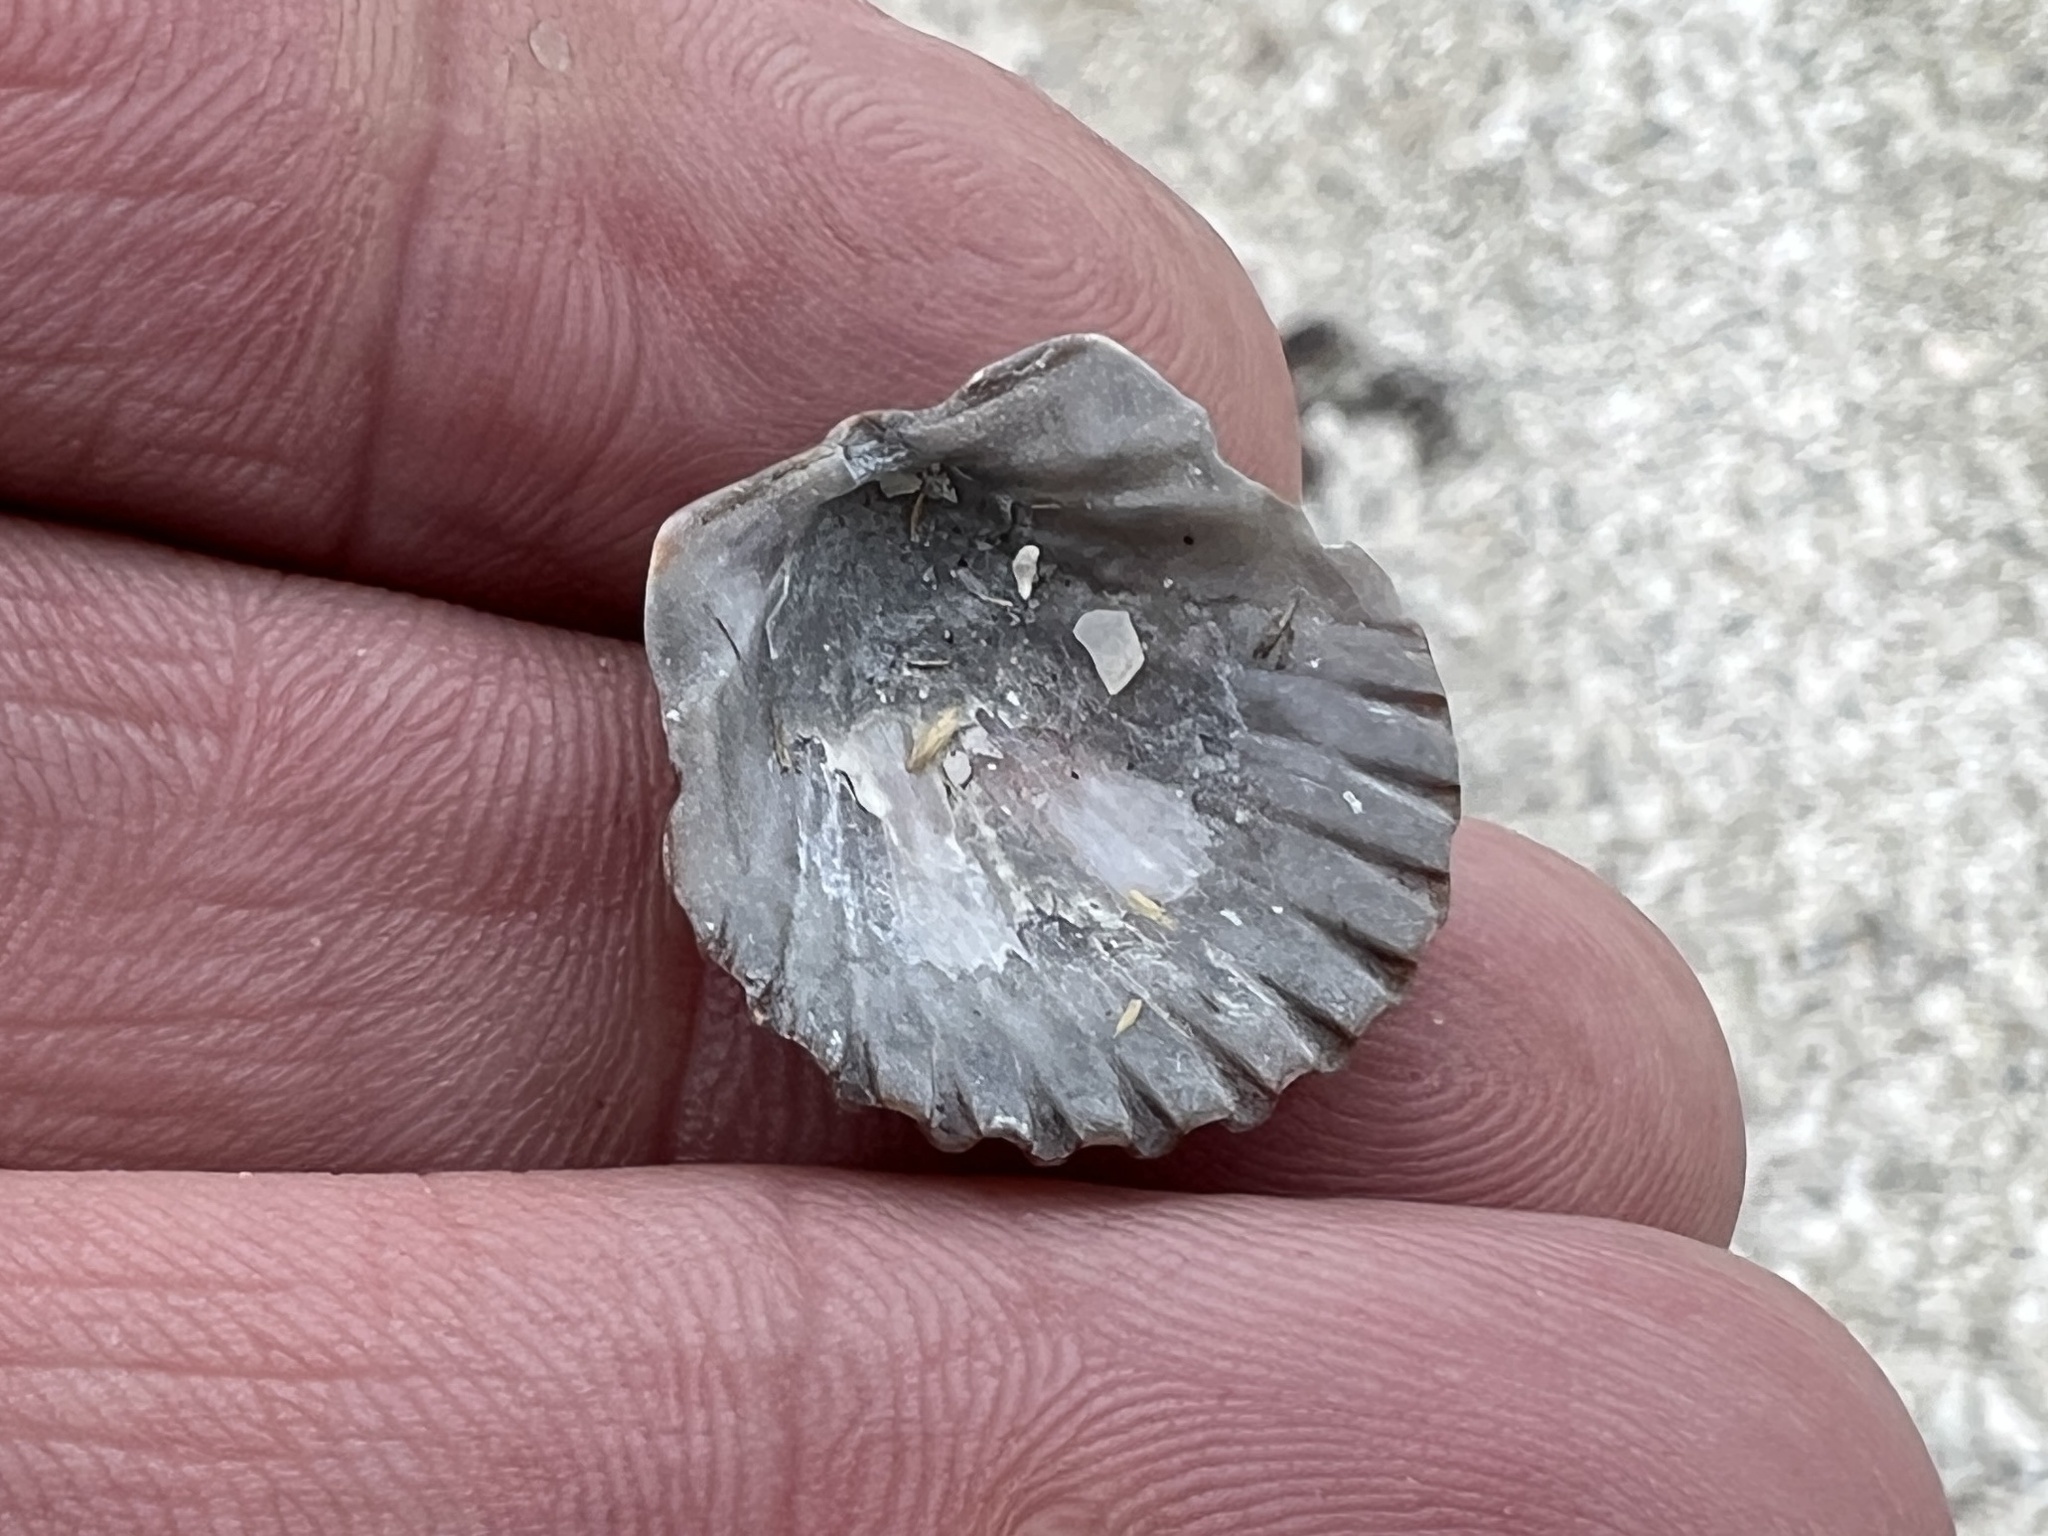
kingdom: Animalia
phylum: Mollusca
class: Bivalvia
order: Pectinida
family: Pectinidae
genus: Argopecten
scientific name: Argopecten irradians
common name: Atlantic bay scallop
